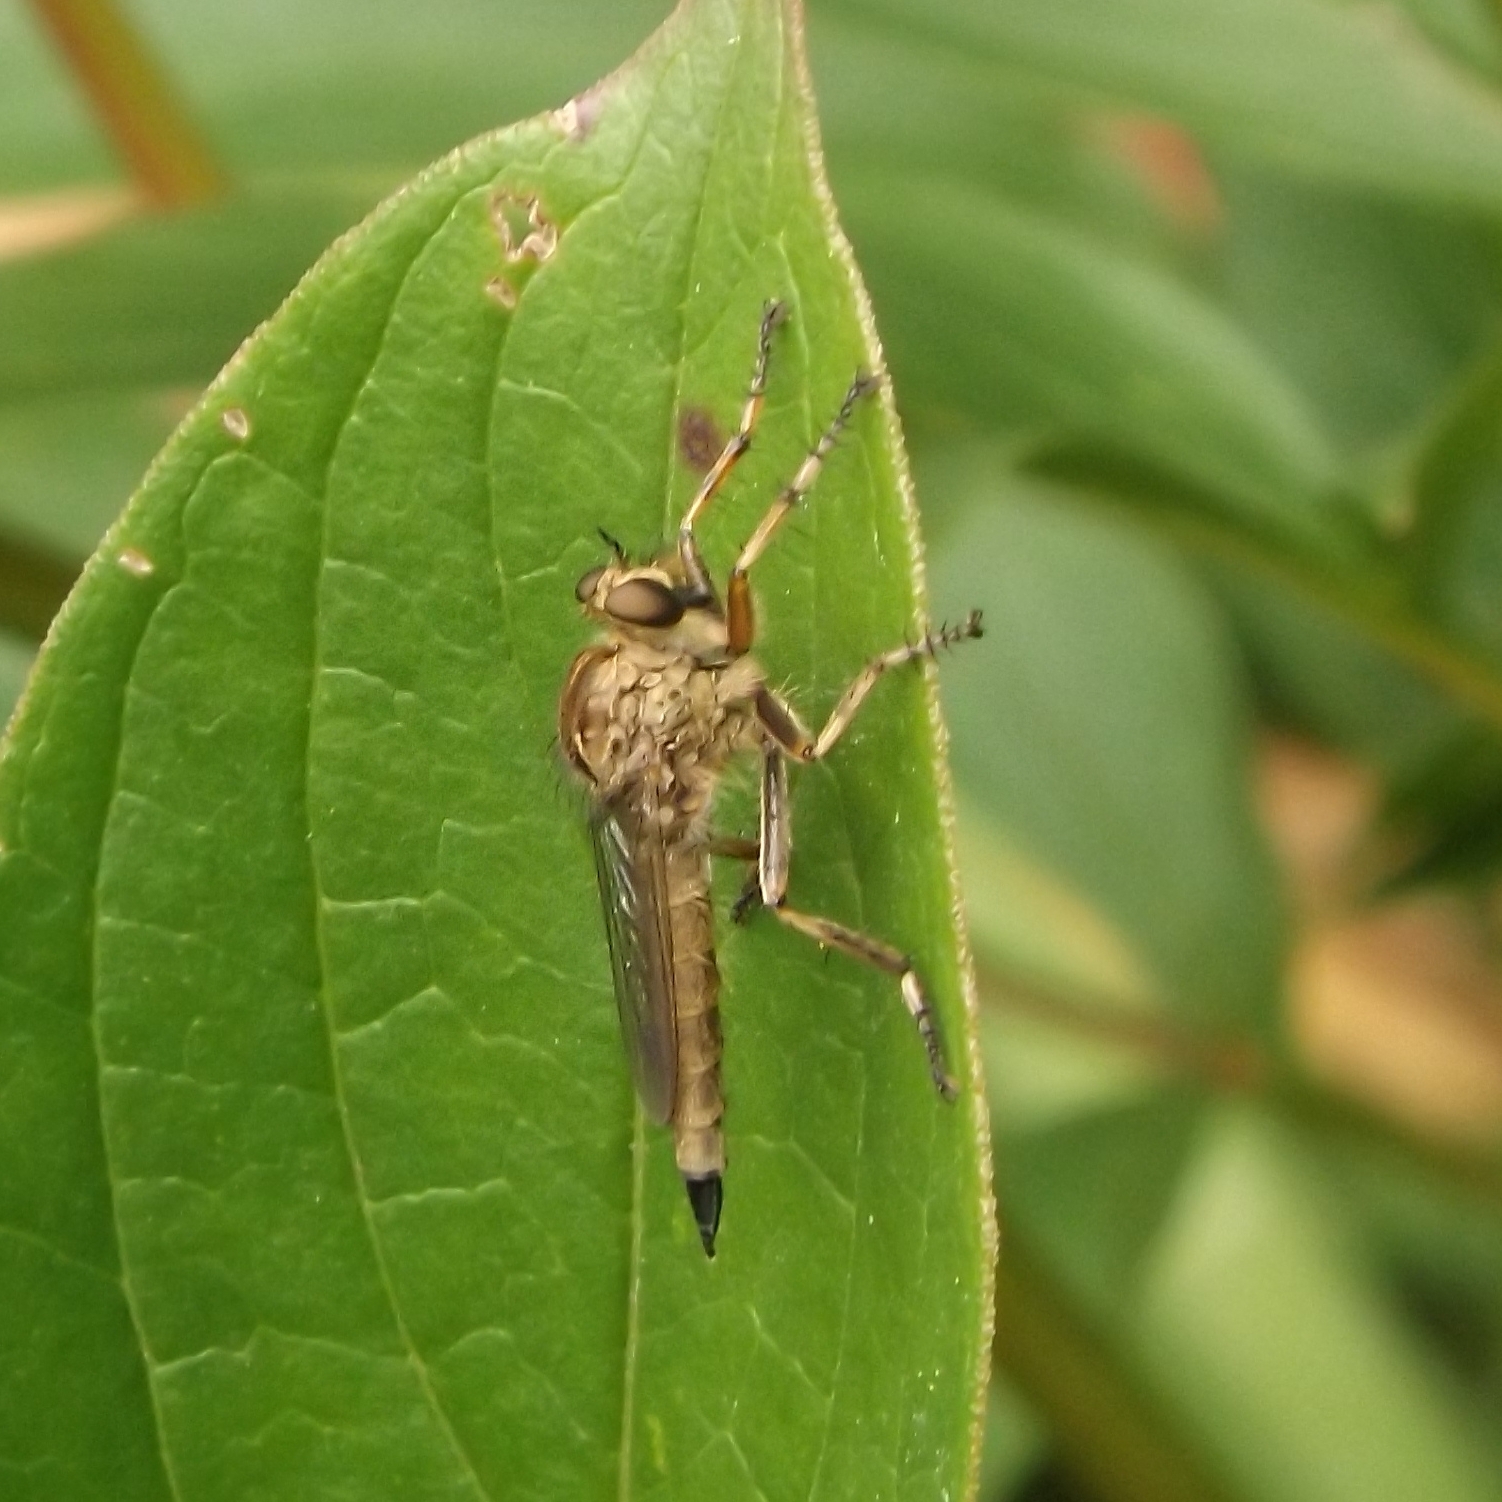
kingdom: Animalia
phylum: Arthropoda
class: Insecta
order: Diptera
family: Asilidae
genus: Epitriptus
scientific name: Epitriptus cingulatus
